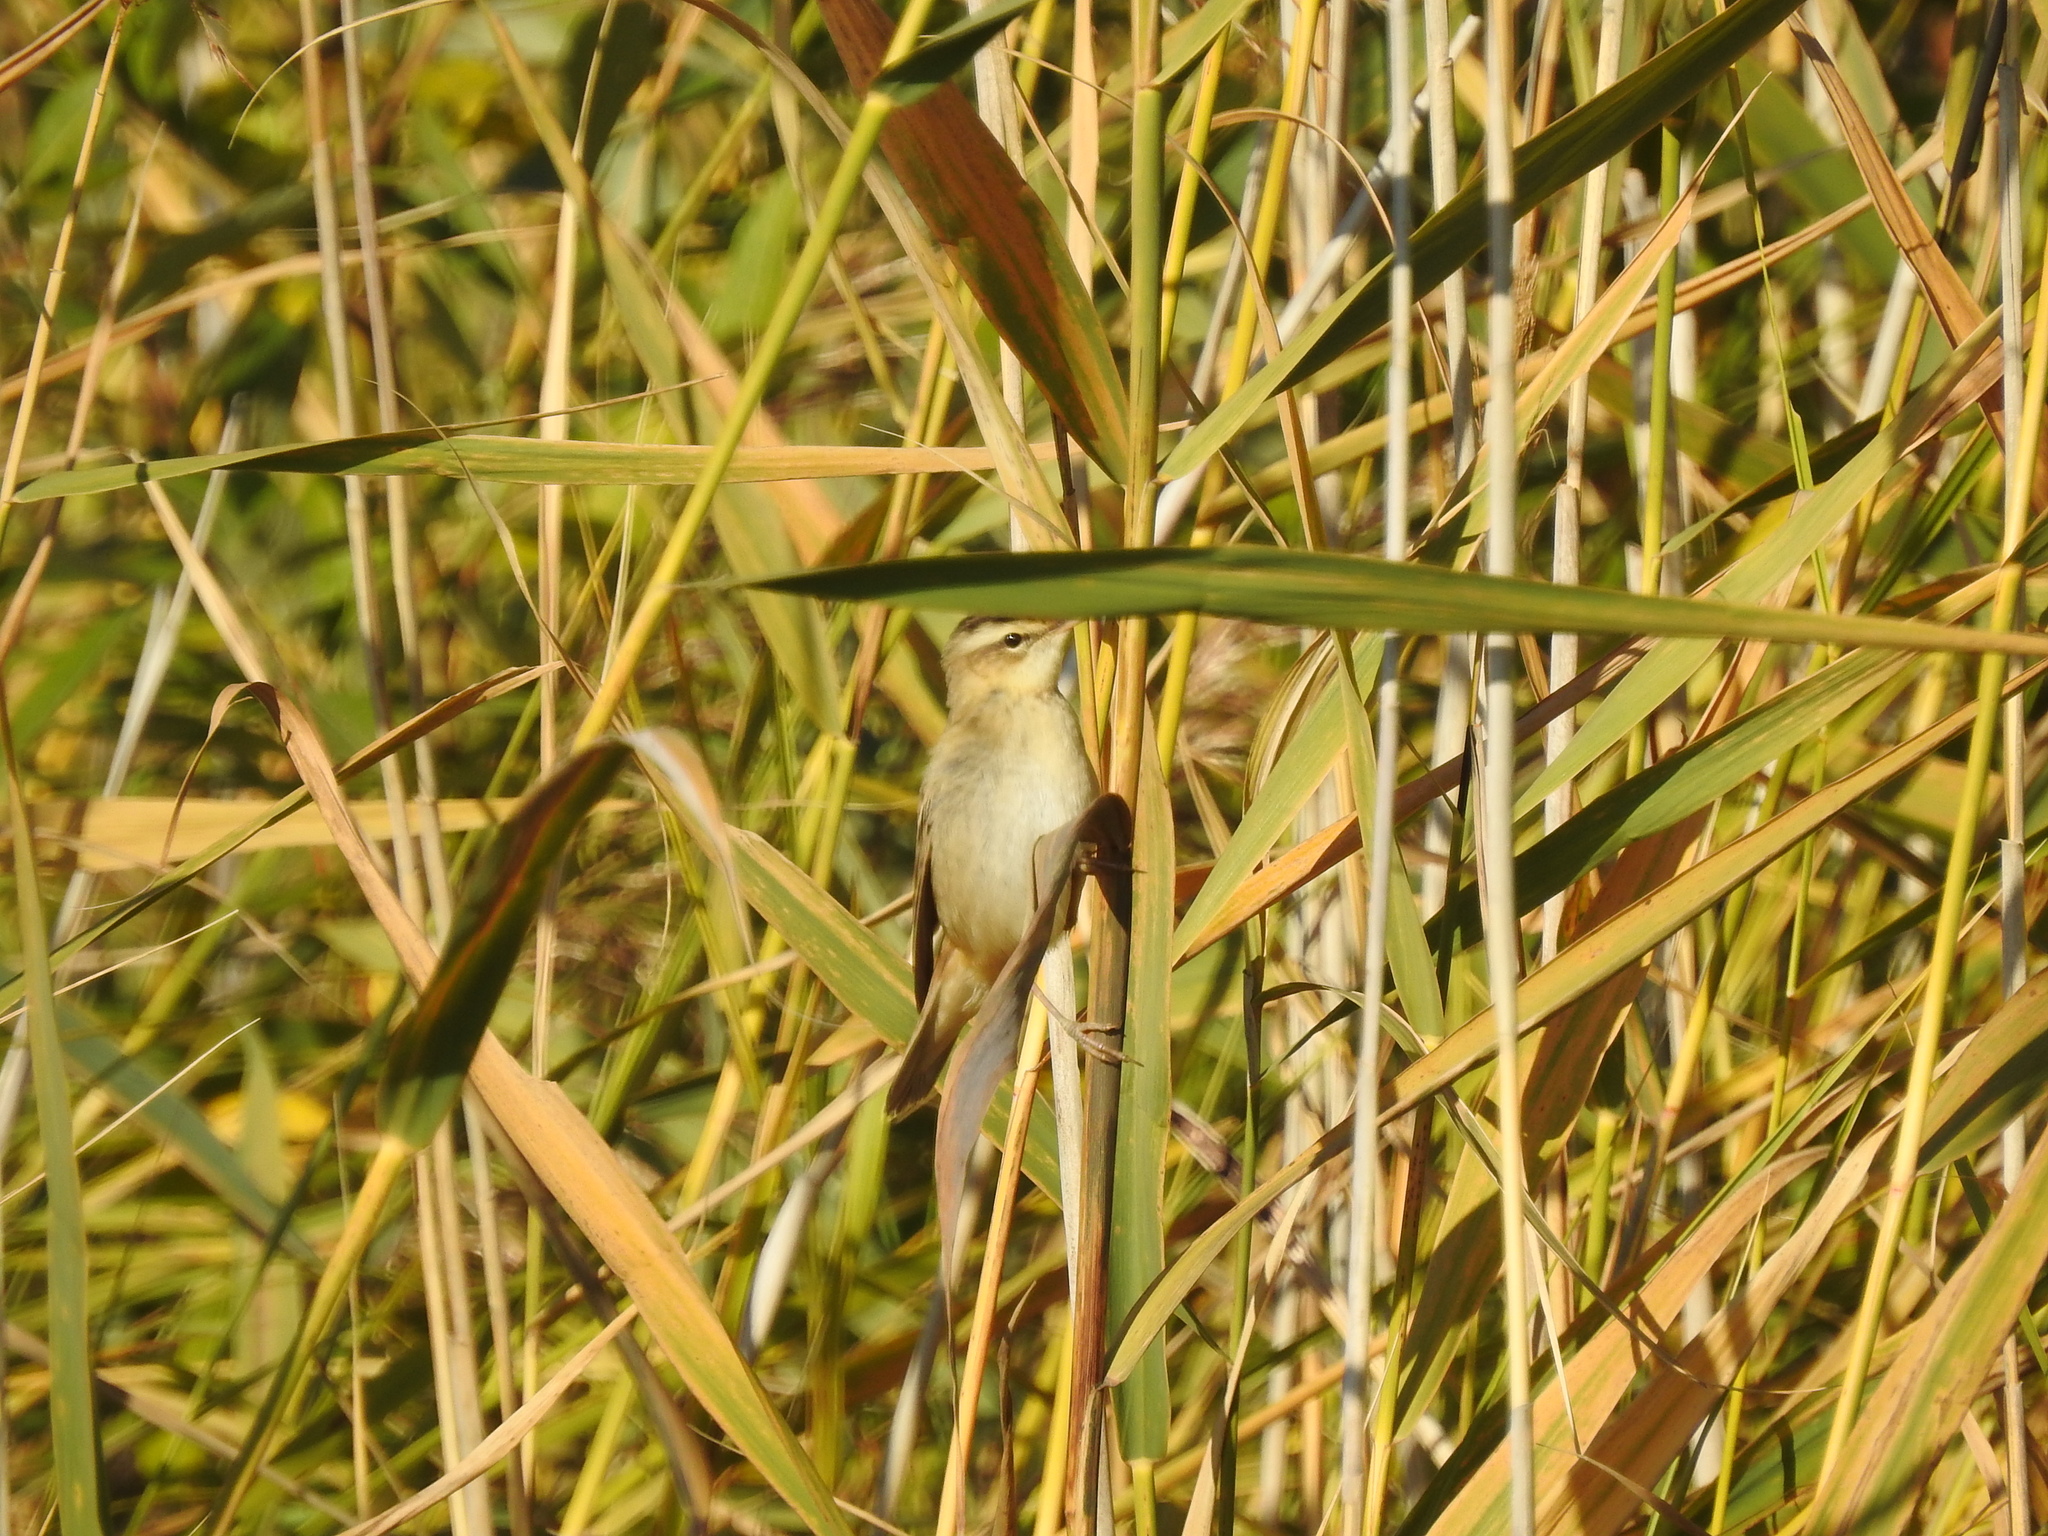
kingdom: Animalia
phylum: Chordata
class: Aves
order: Passeriformes
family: Acrocephalidae
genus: Acrocephalus
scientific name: Acrocephalus schoenobaenus
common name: Sedge warbler
